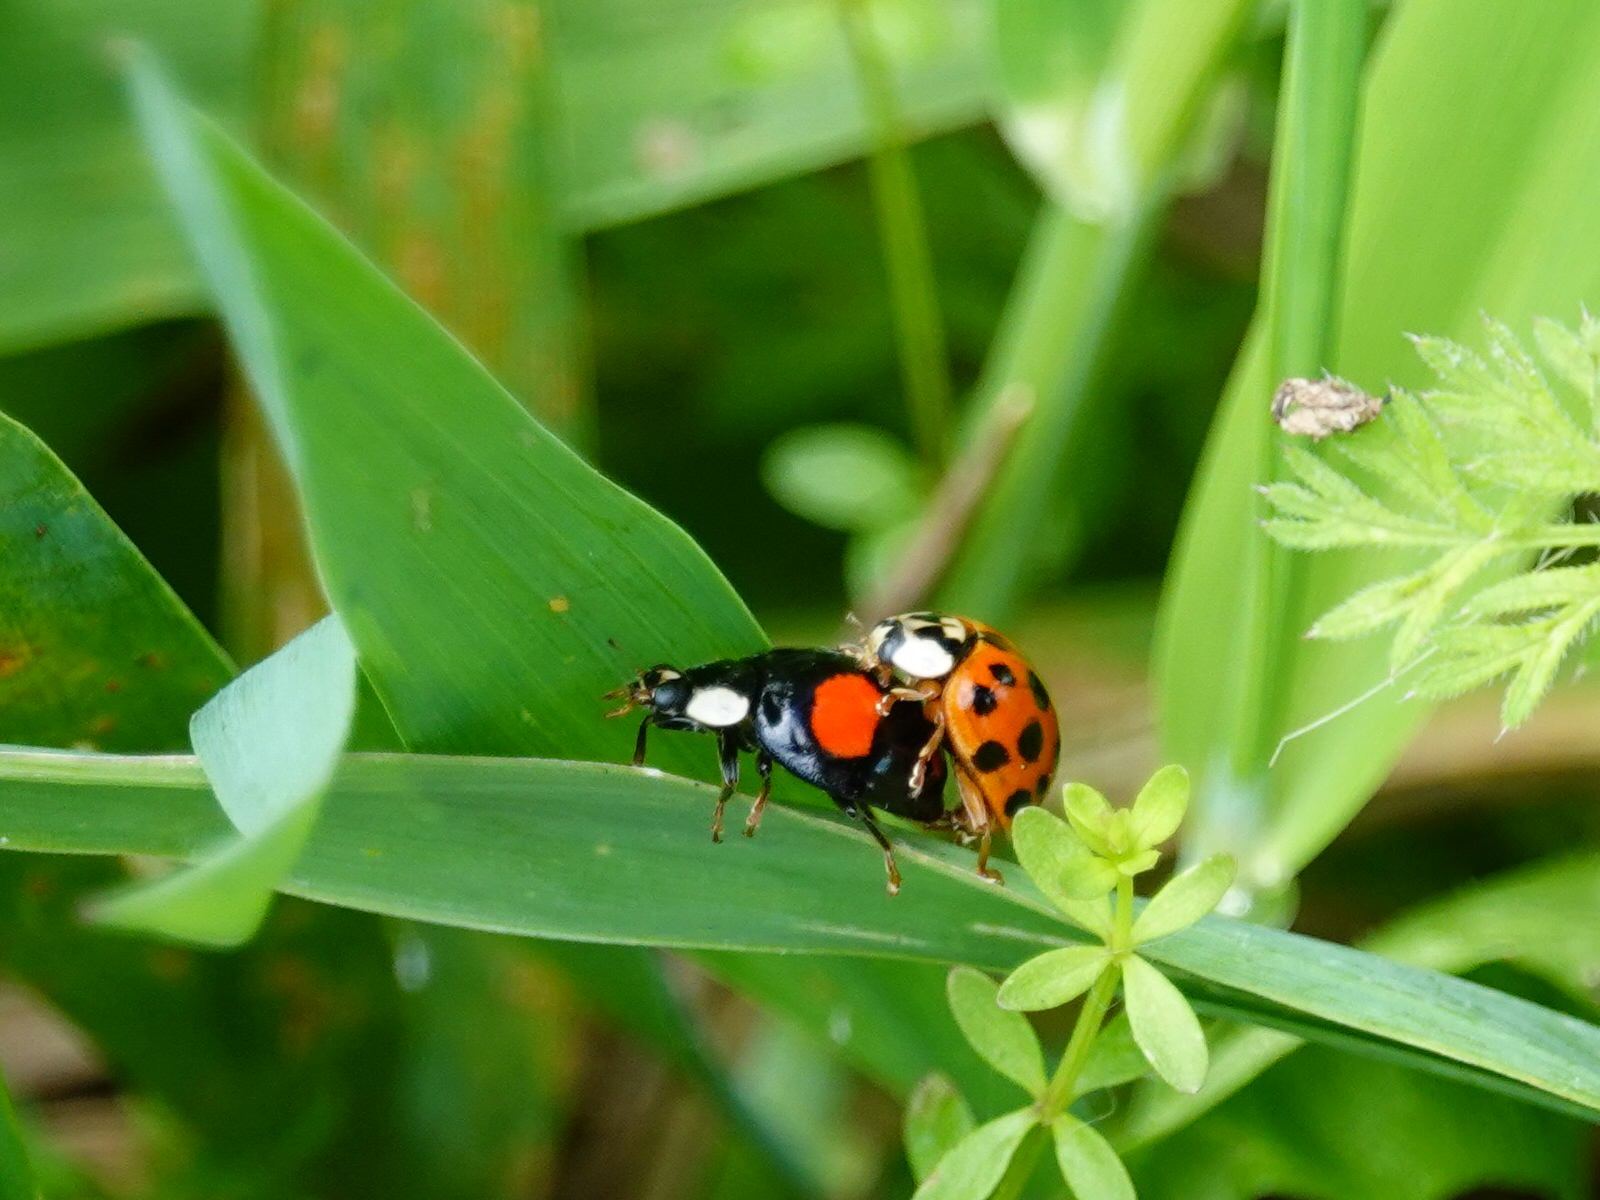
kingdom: Animalia
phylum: Arthropoda
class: Insecta
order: Coleoptera
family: Coccinellidae
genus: Harmonia
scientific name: Harmonia axyridis
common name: Harlequin ladybird
